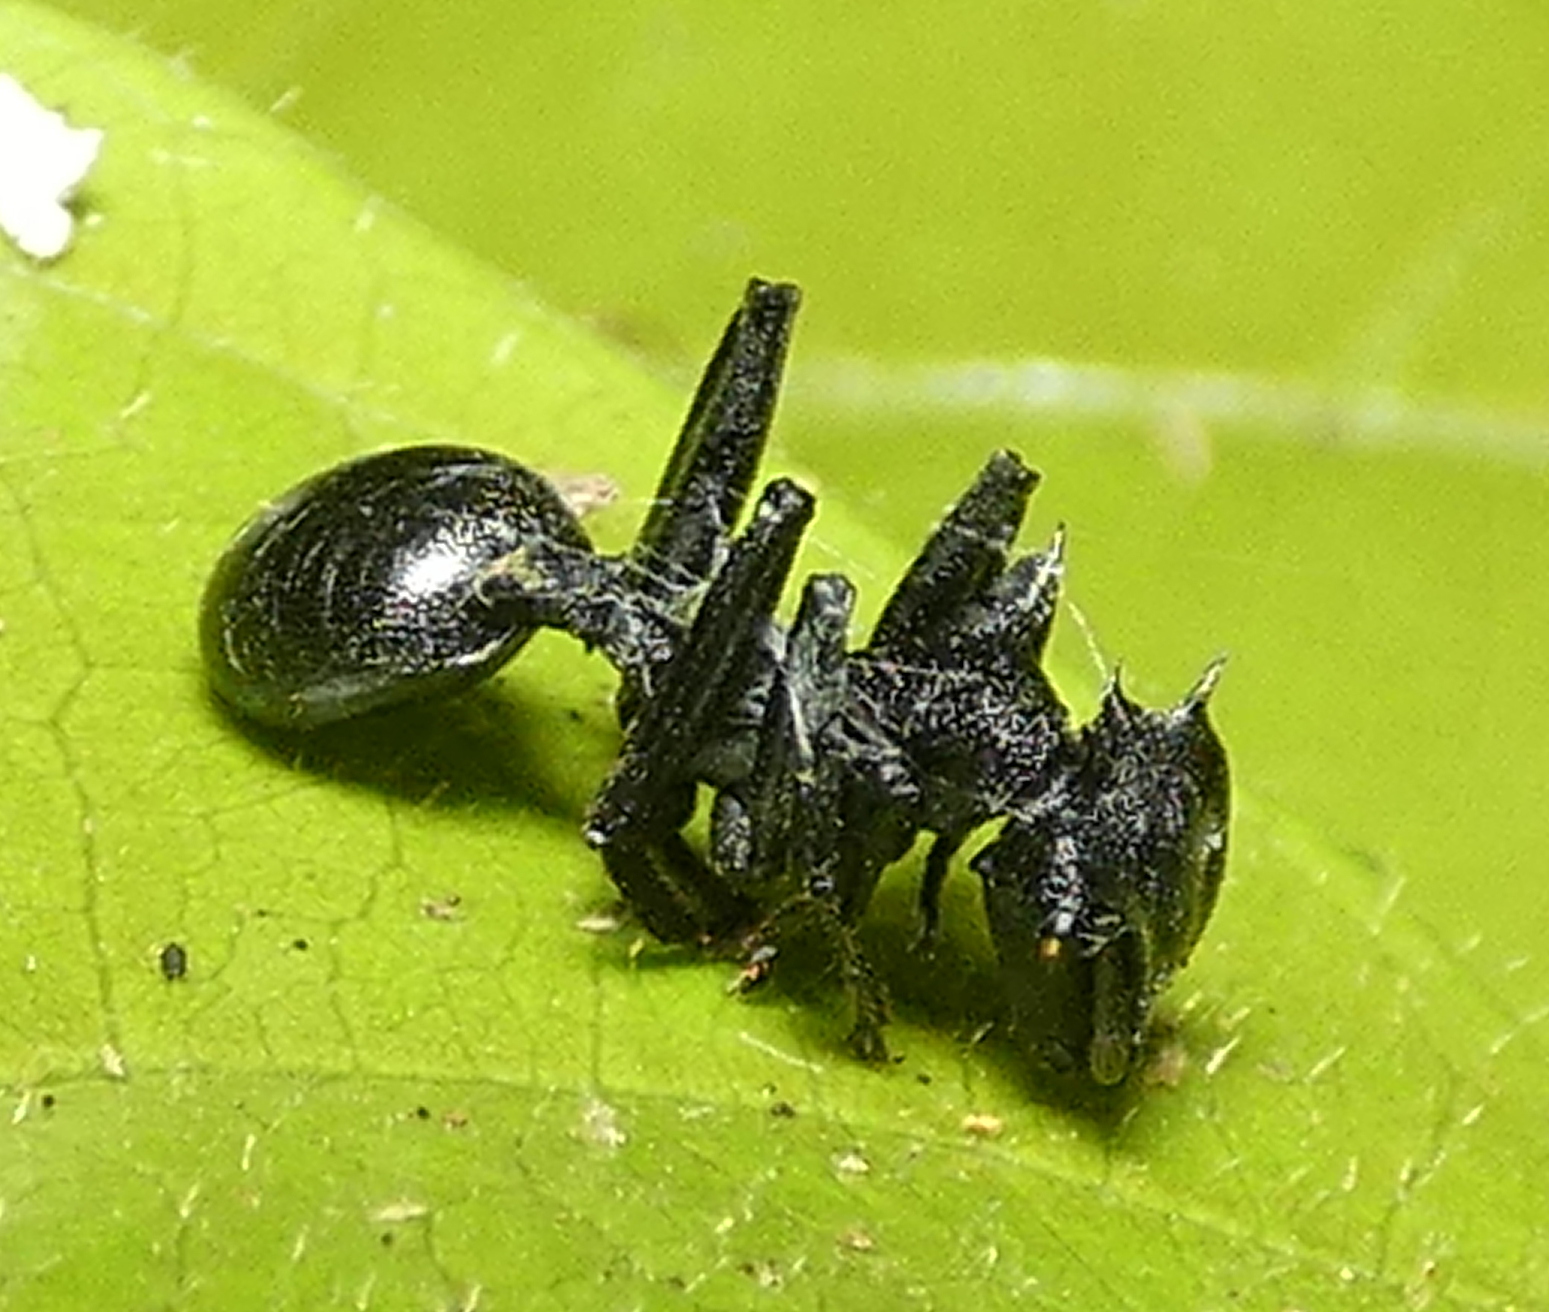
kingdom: Animalia
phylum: Arthropoda
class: Insecta
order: Hymenoptera
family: Formicidae
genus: Cephalotes
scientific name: Cephalotes atratus
